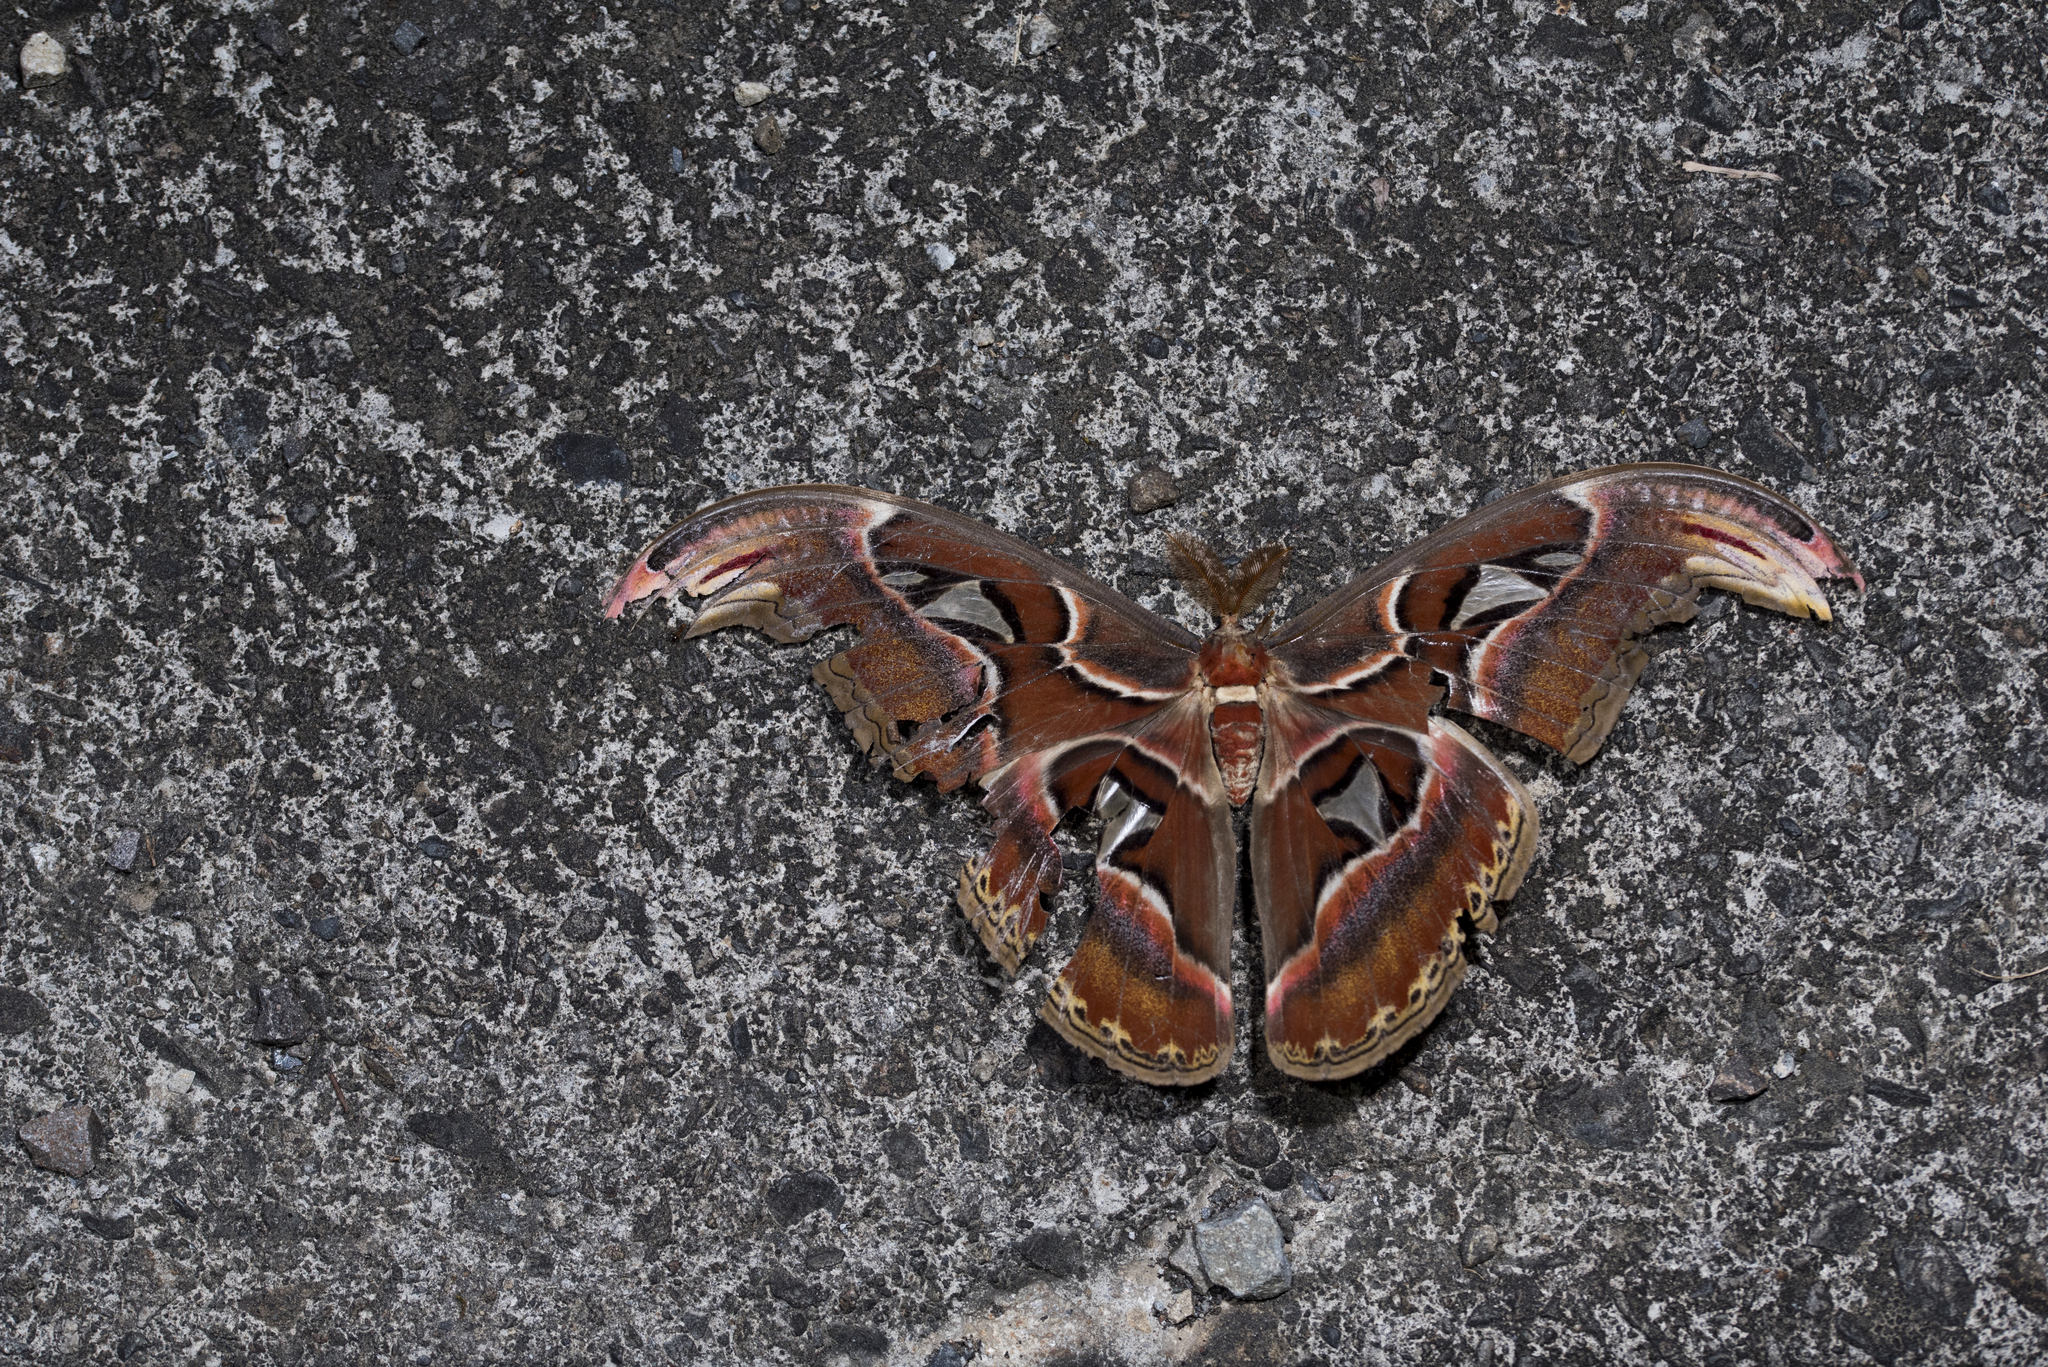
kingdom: Animalia
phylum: Arthropoda
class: Insecta
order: Lepidoptera
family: Saturniidae
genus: Attacus
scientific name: Attacus atlas
